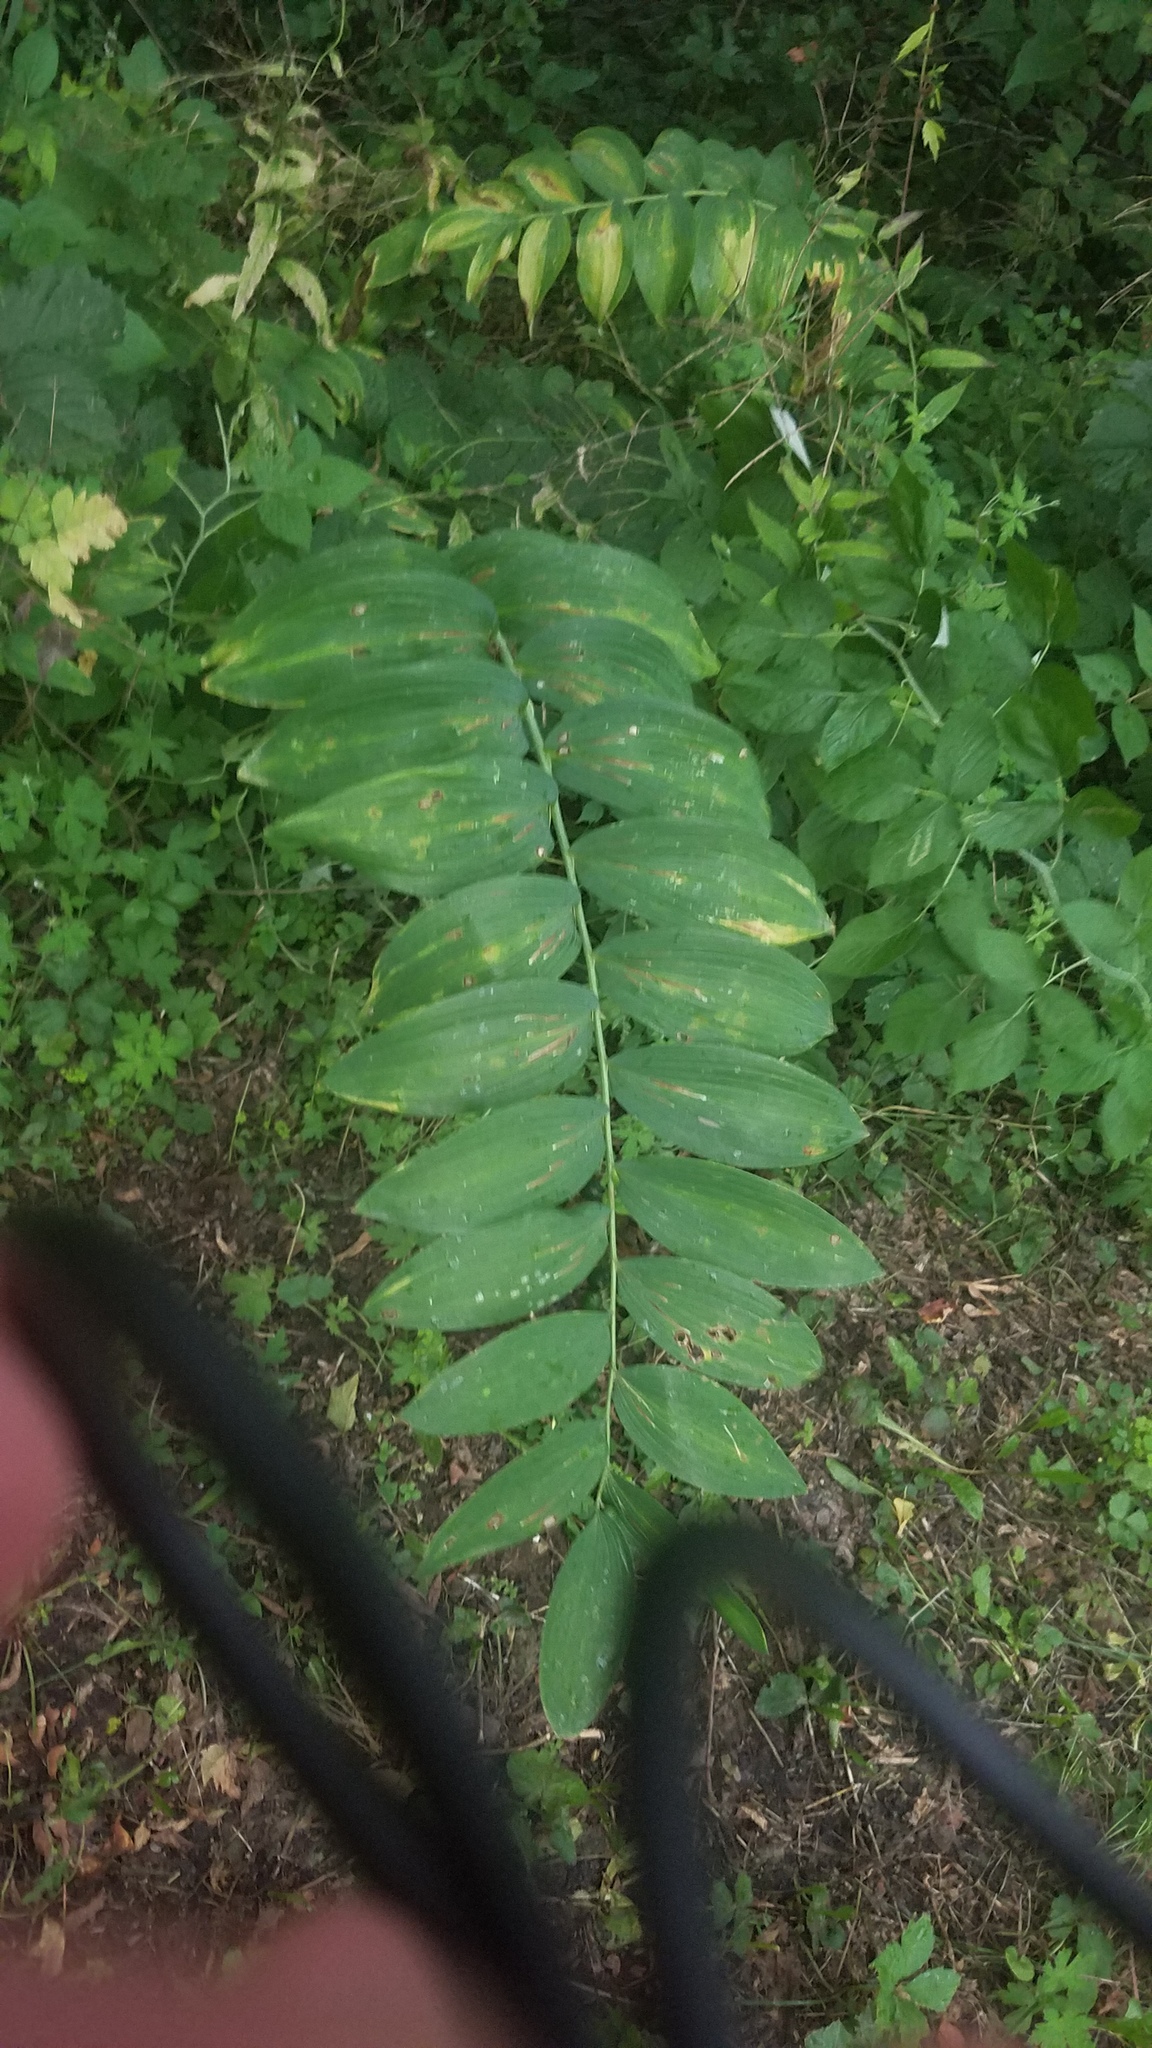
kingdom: Plantae
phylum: Tracheophyta
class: Liliopsida
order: Asparagales
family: Asparagaceae
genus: Polygonatum
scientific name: Polygonatum biflorum
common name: American solomon's-seal
